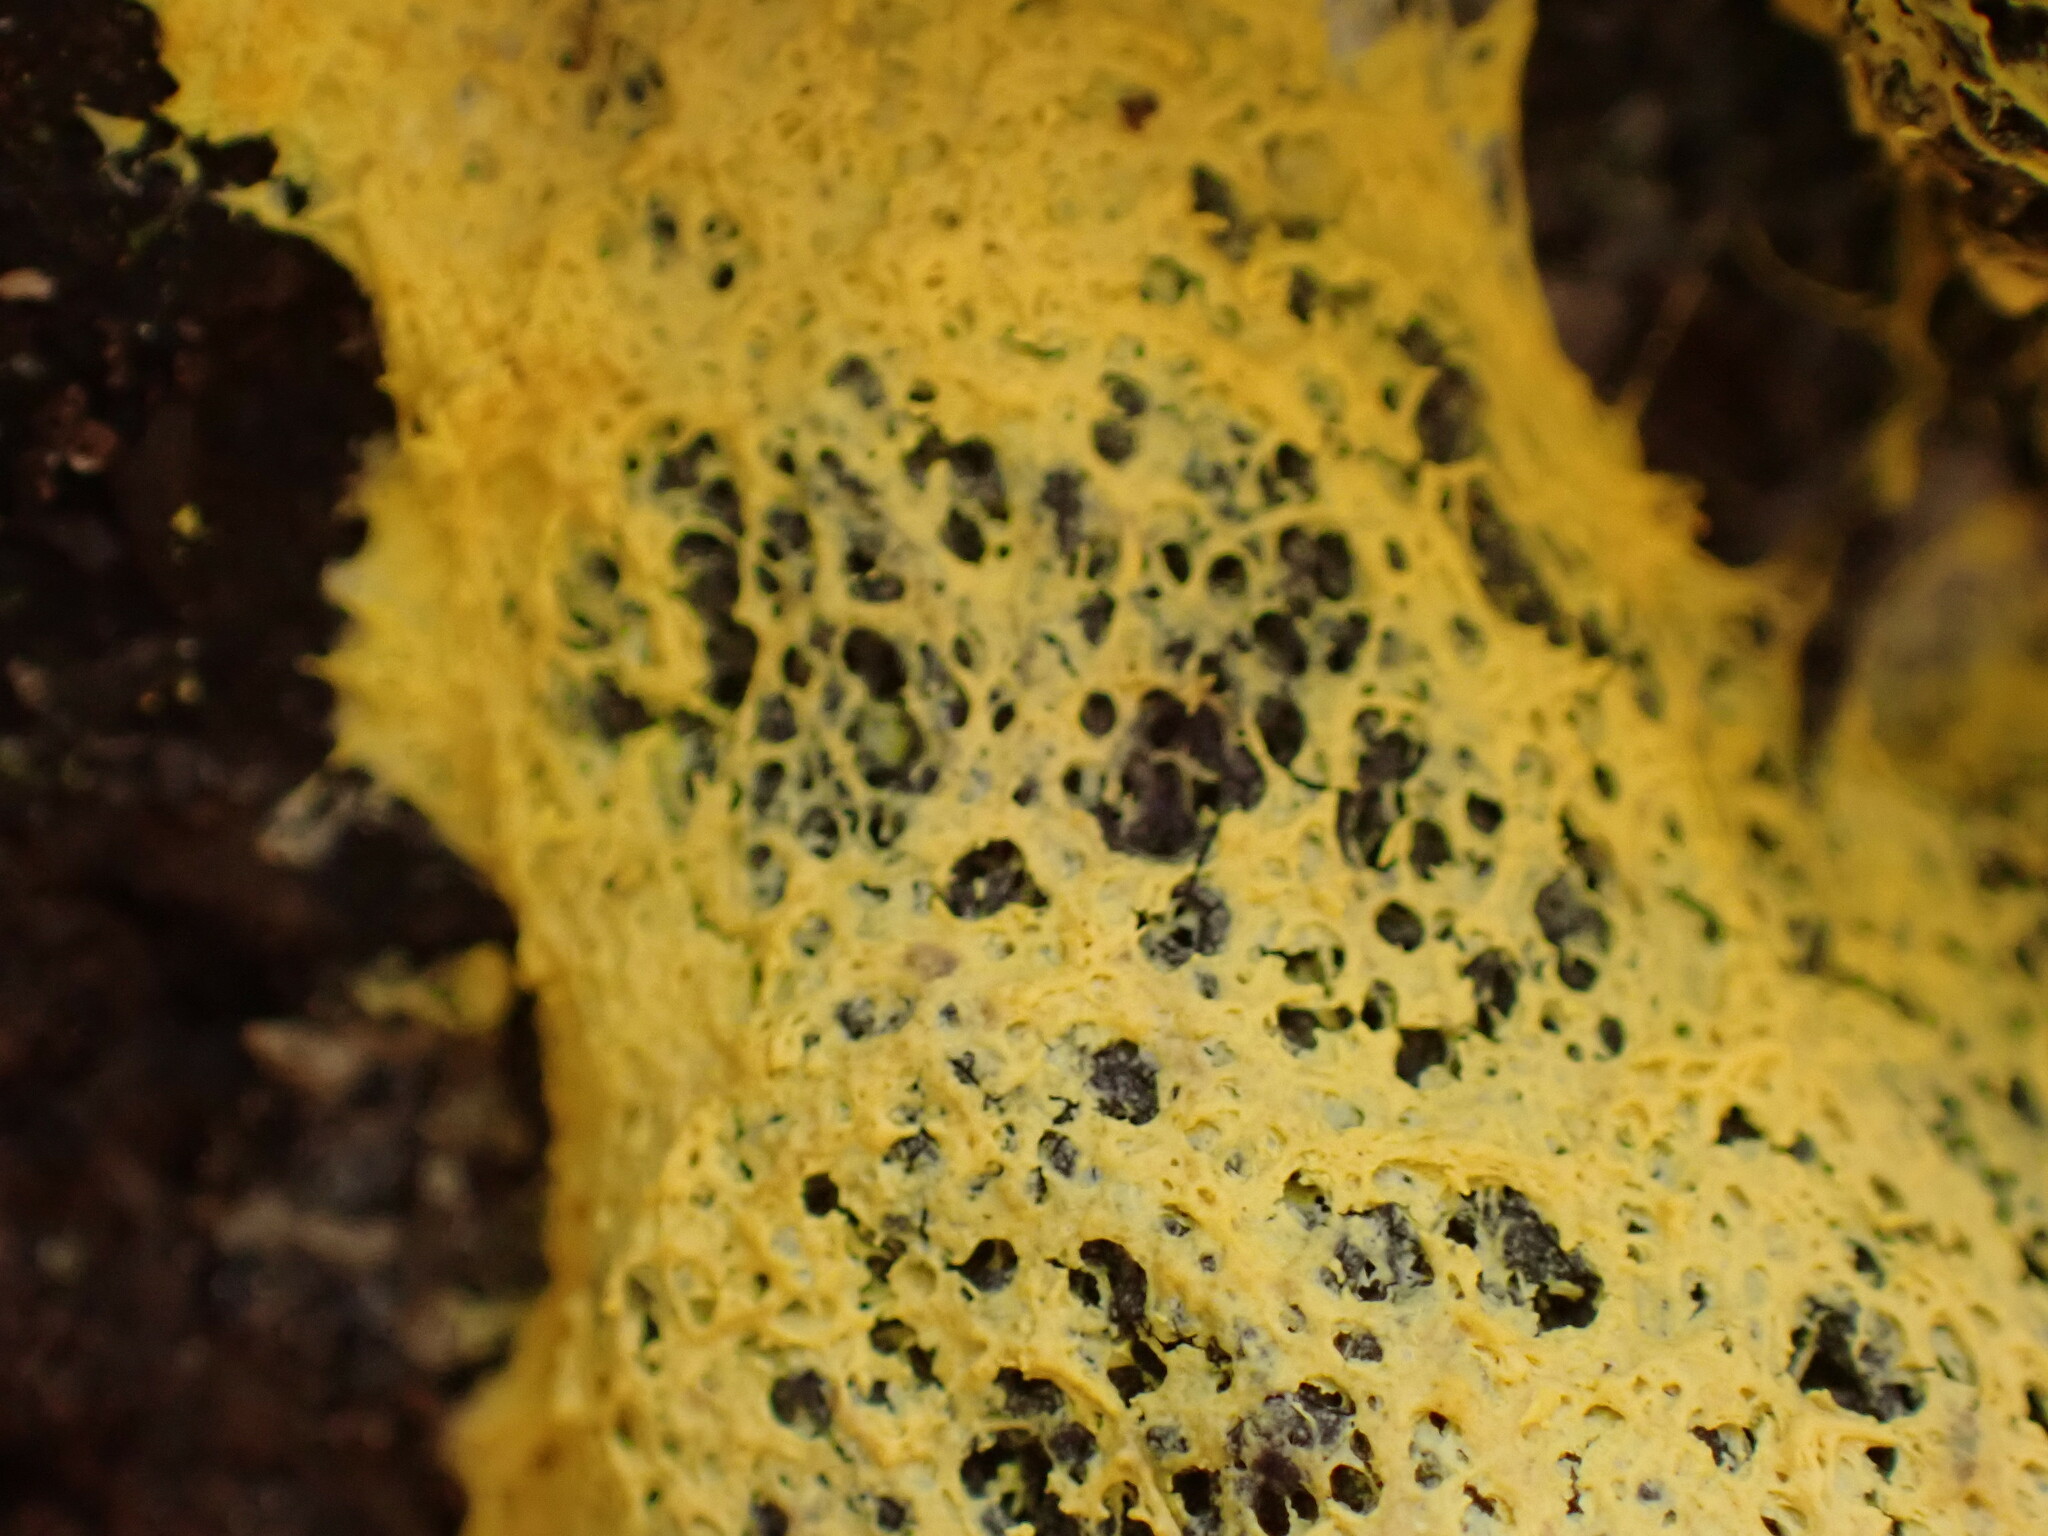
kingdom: Protozoa
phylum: Mycetozoa
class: Myxomycetes
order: Physarales
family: Physaraceae
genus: Fuligo
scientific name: Fuligo septica
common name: Dog vomit slime mold
